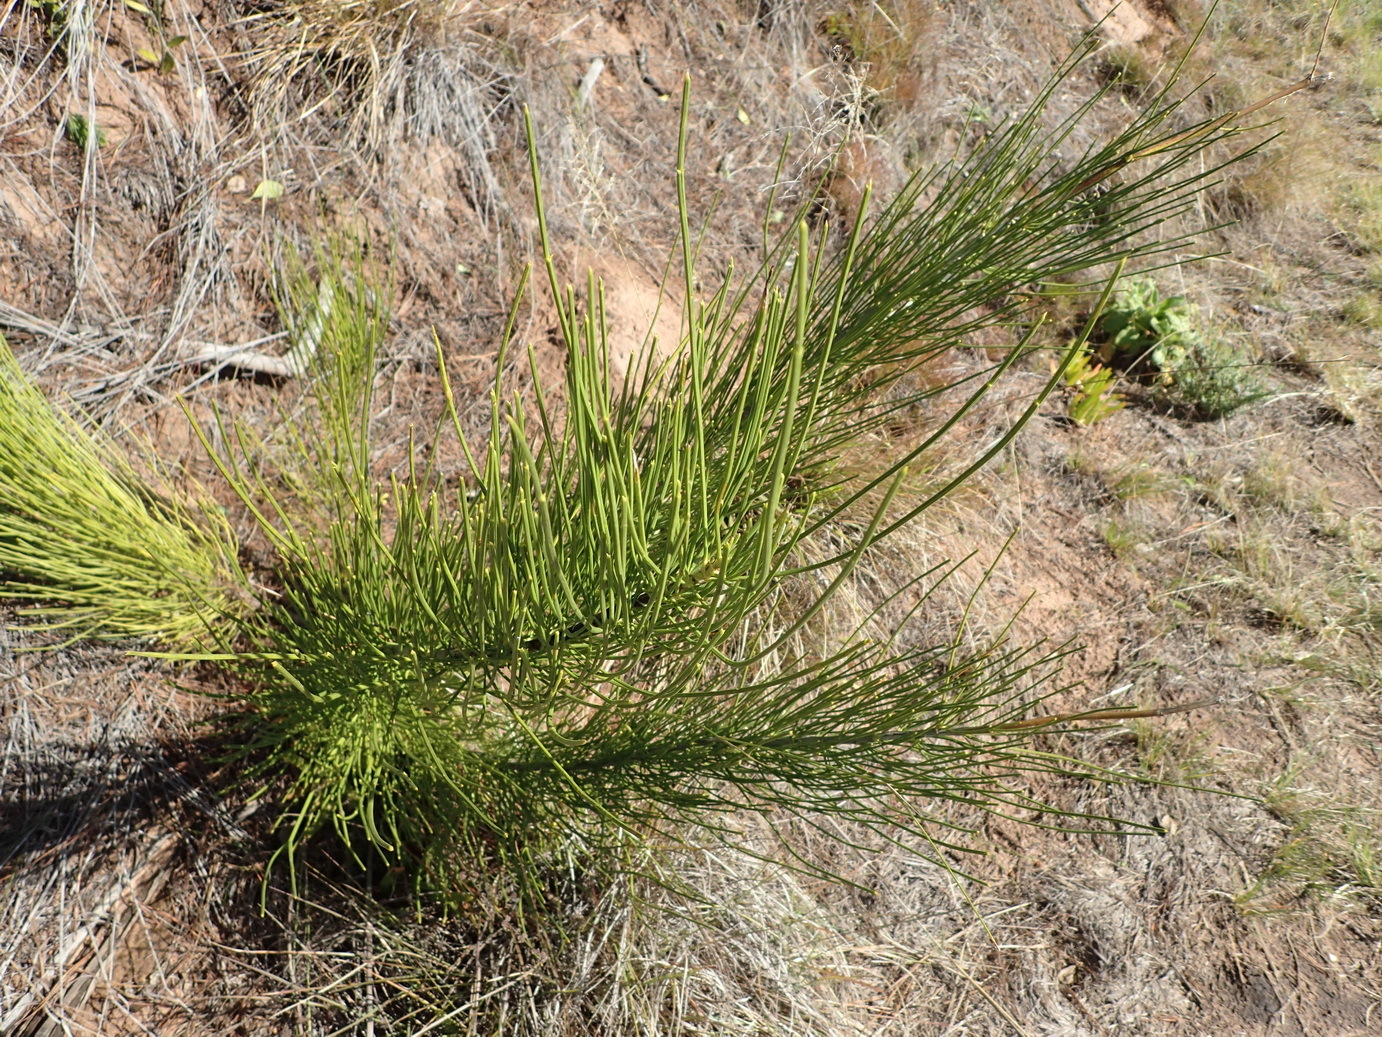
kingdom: Plantae
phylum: Tracheophyta
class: Magnoliopsida
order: Apiales
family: Apiaceae
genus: Anginon
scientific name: Anginon difforme
